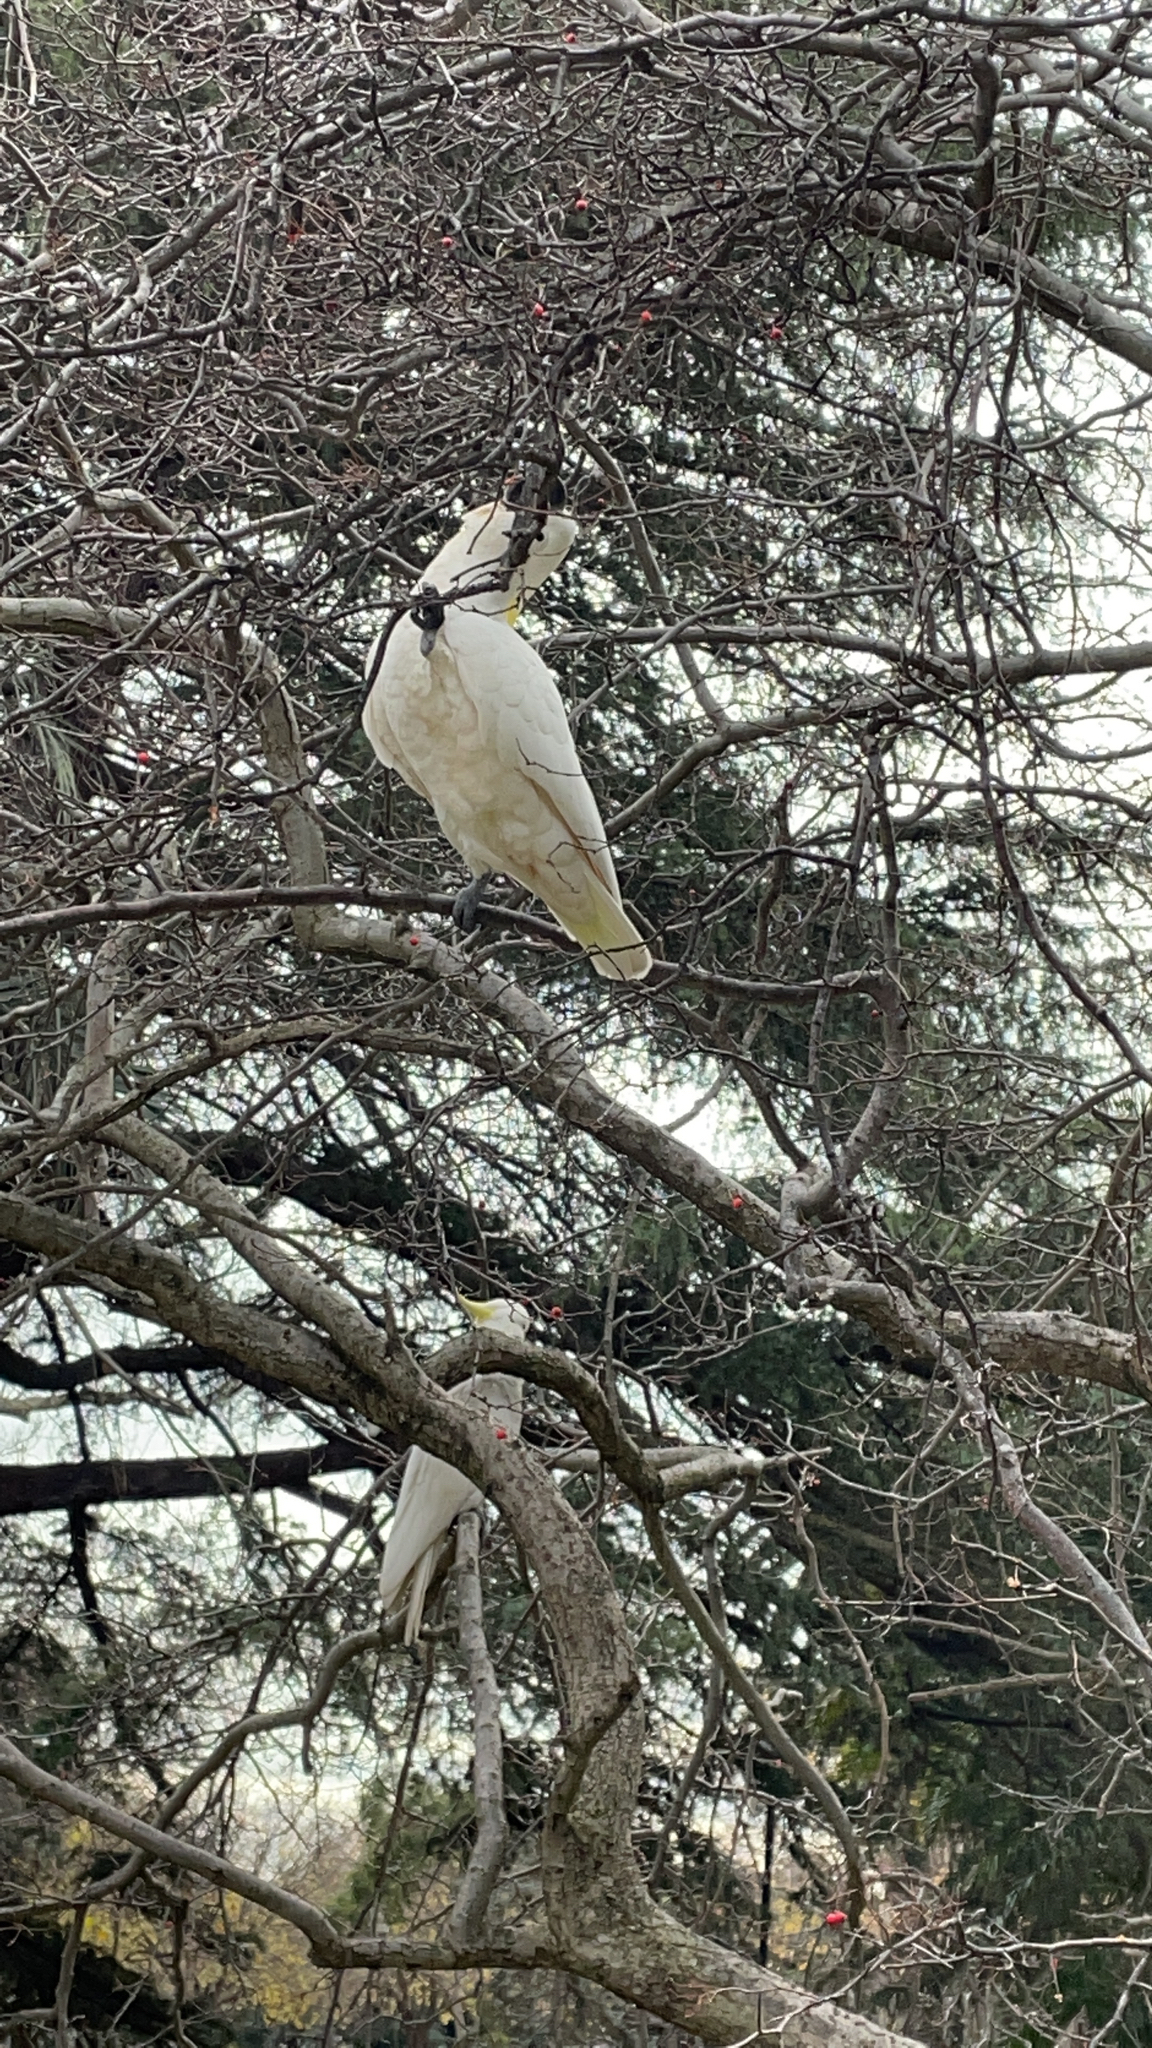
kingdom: Animalia
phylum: Chordata
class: Aves
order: Psittaciformes
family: Psittacidae
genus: Cacatua
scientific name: Cacatua galerita
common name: Sulphur-crested cockatoo
